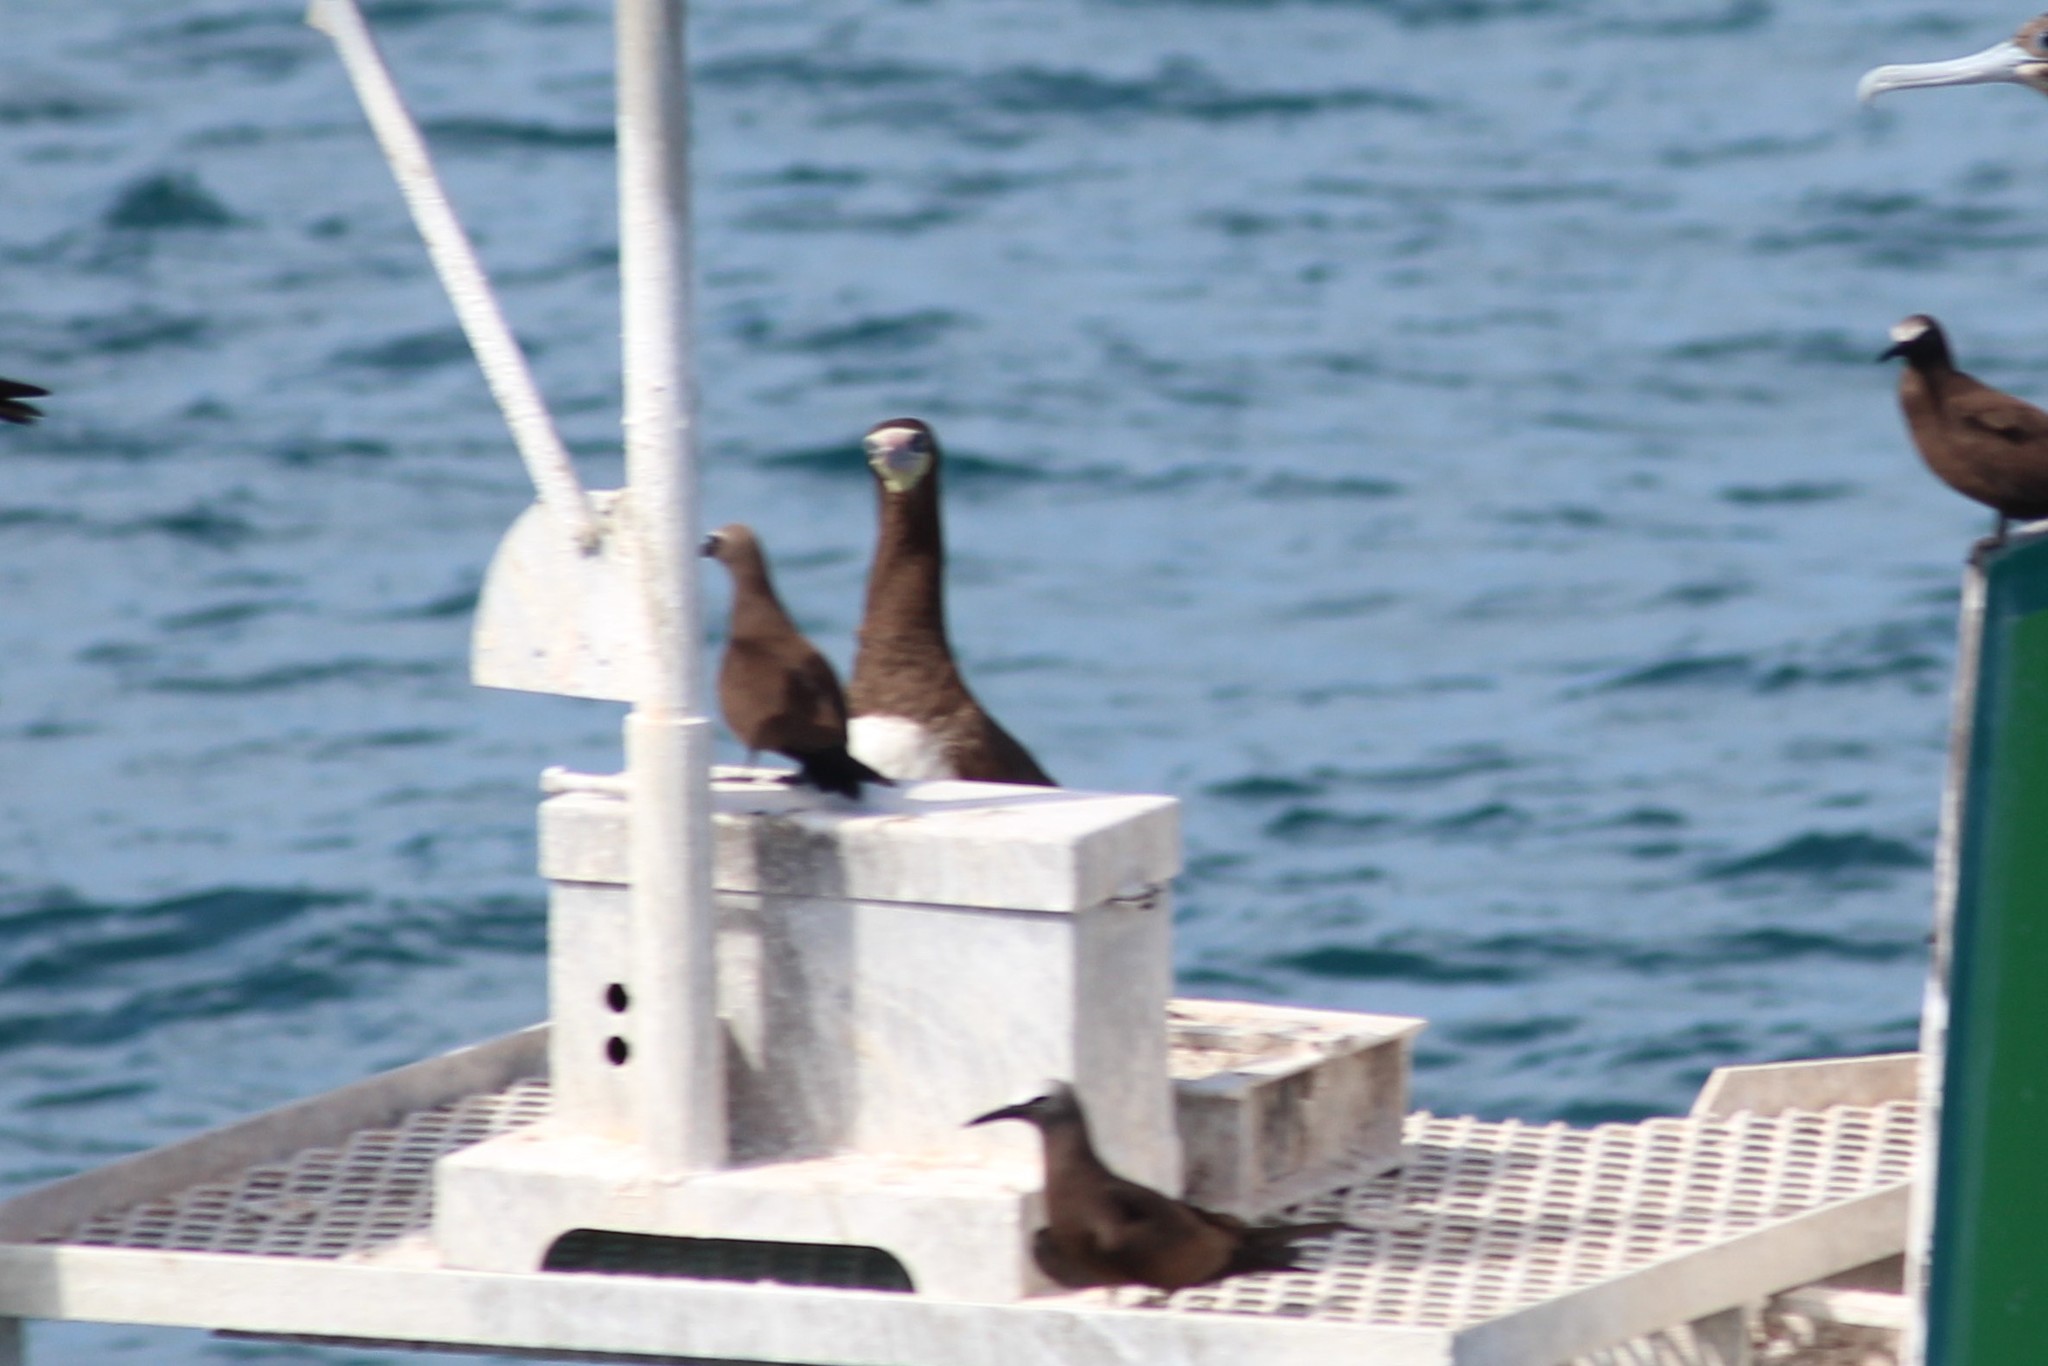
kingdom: Animalia
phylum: Chordata
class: Aves
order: Suliformes
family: Sulidae
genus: Sula
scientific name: Sula leucogaster
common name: Brown booby
